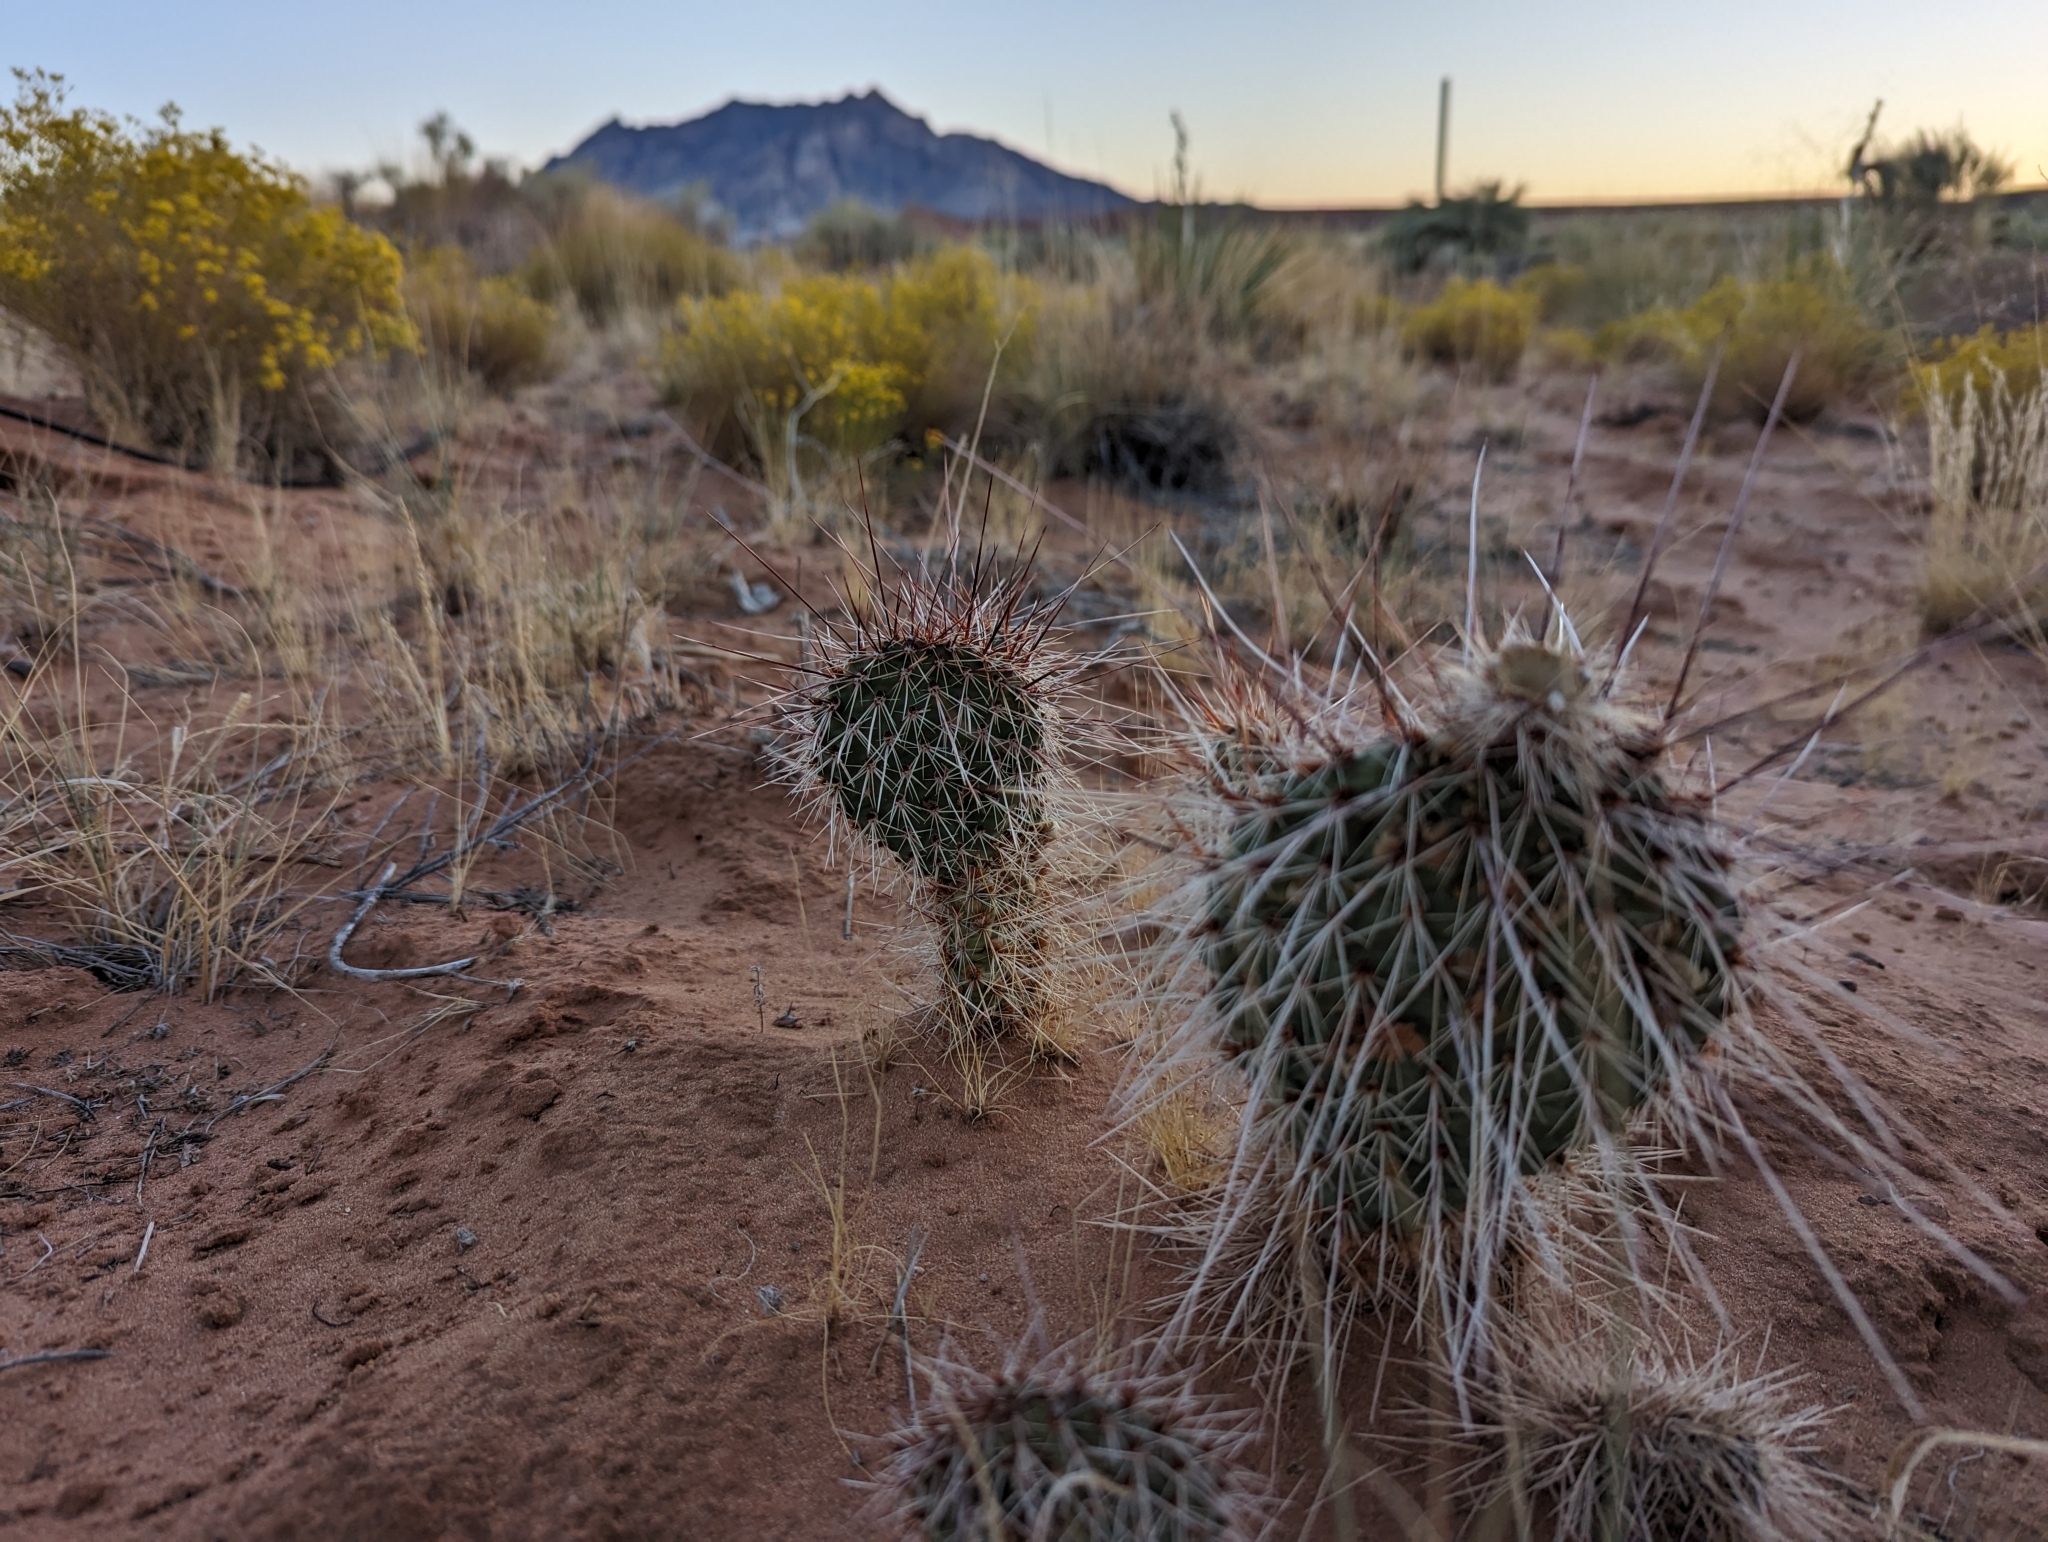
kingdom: Plantae
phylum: Tracheophyta
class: Magnoliopsida
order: Caryophyllales
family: Cactaceae
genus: Opuntia
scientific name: Opuntia polyacantha
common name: Plains prickly-pear
